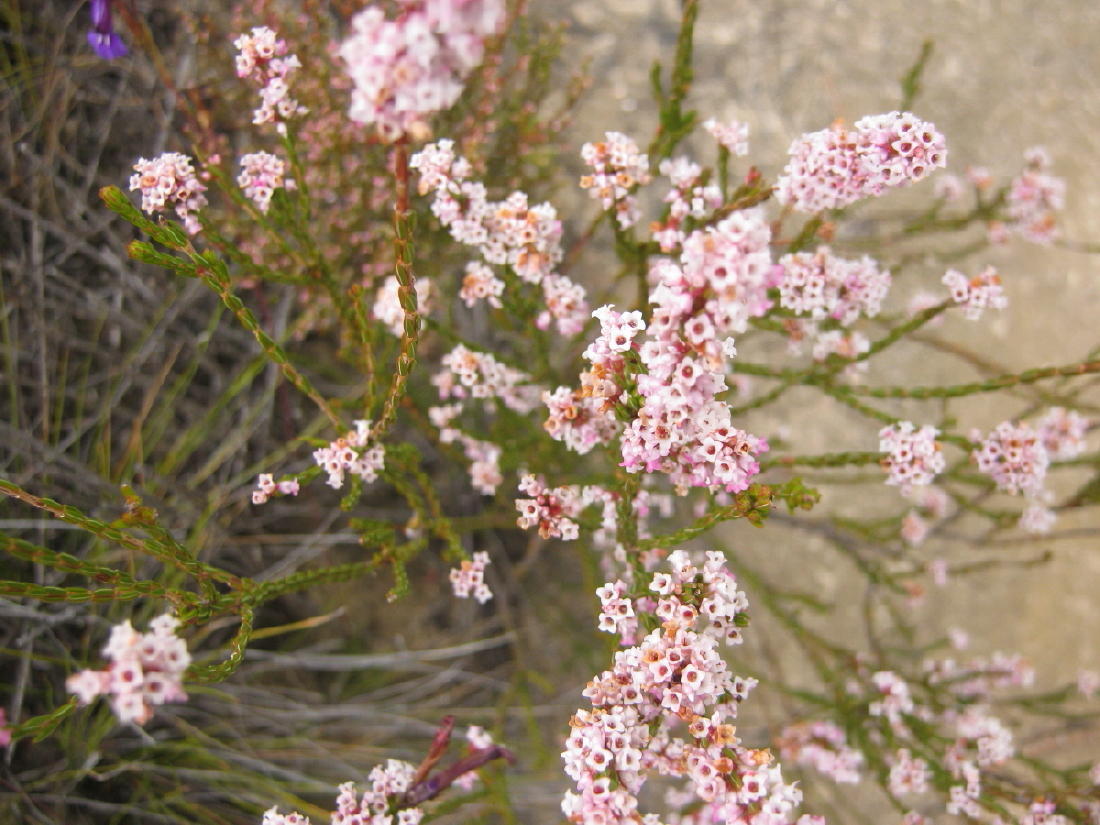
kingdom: Plantae
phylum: Tracheophyta
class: Magnoliopsida
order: Ericales
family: Ericaceae
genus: Erica
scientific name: Erica articularis
